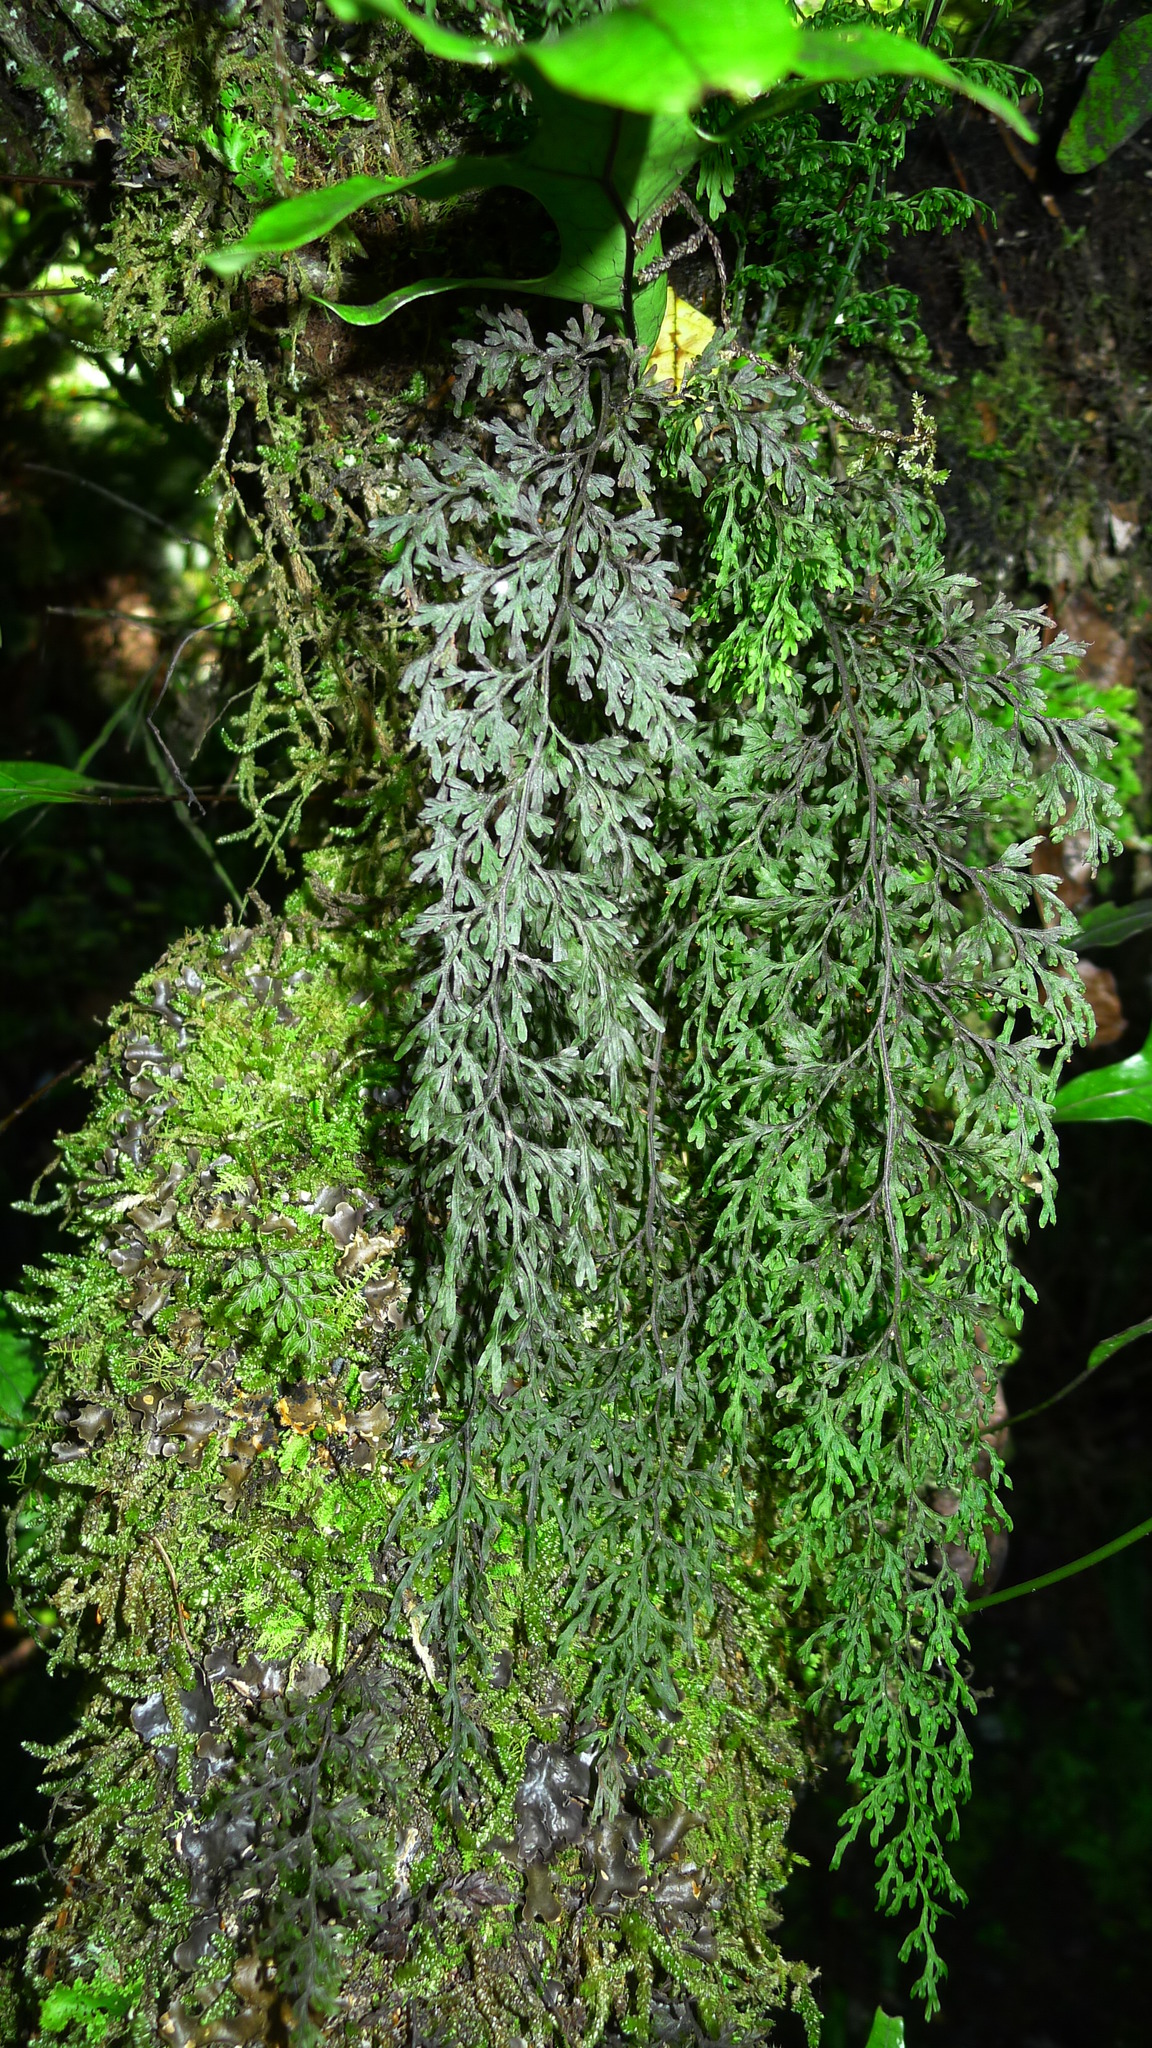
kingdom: Plantae
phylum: Tracheophyta
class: Polypodiopsida
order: Hymenophyllales
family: Hymenophyllaceae
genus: Hymenophyllum
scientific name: Hymenophyllum pulcherrimum
